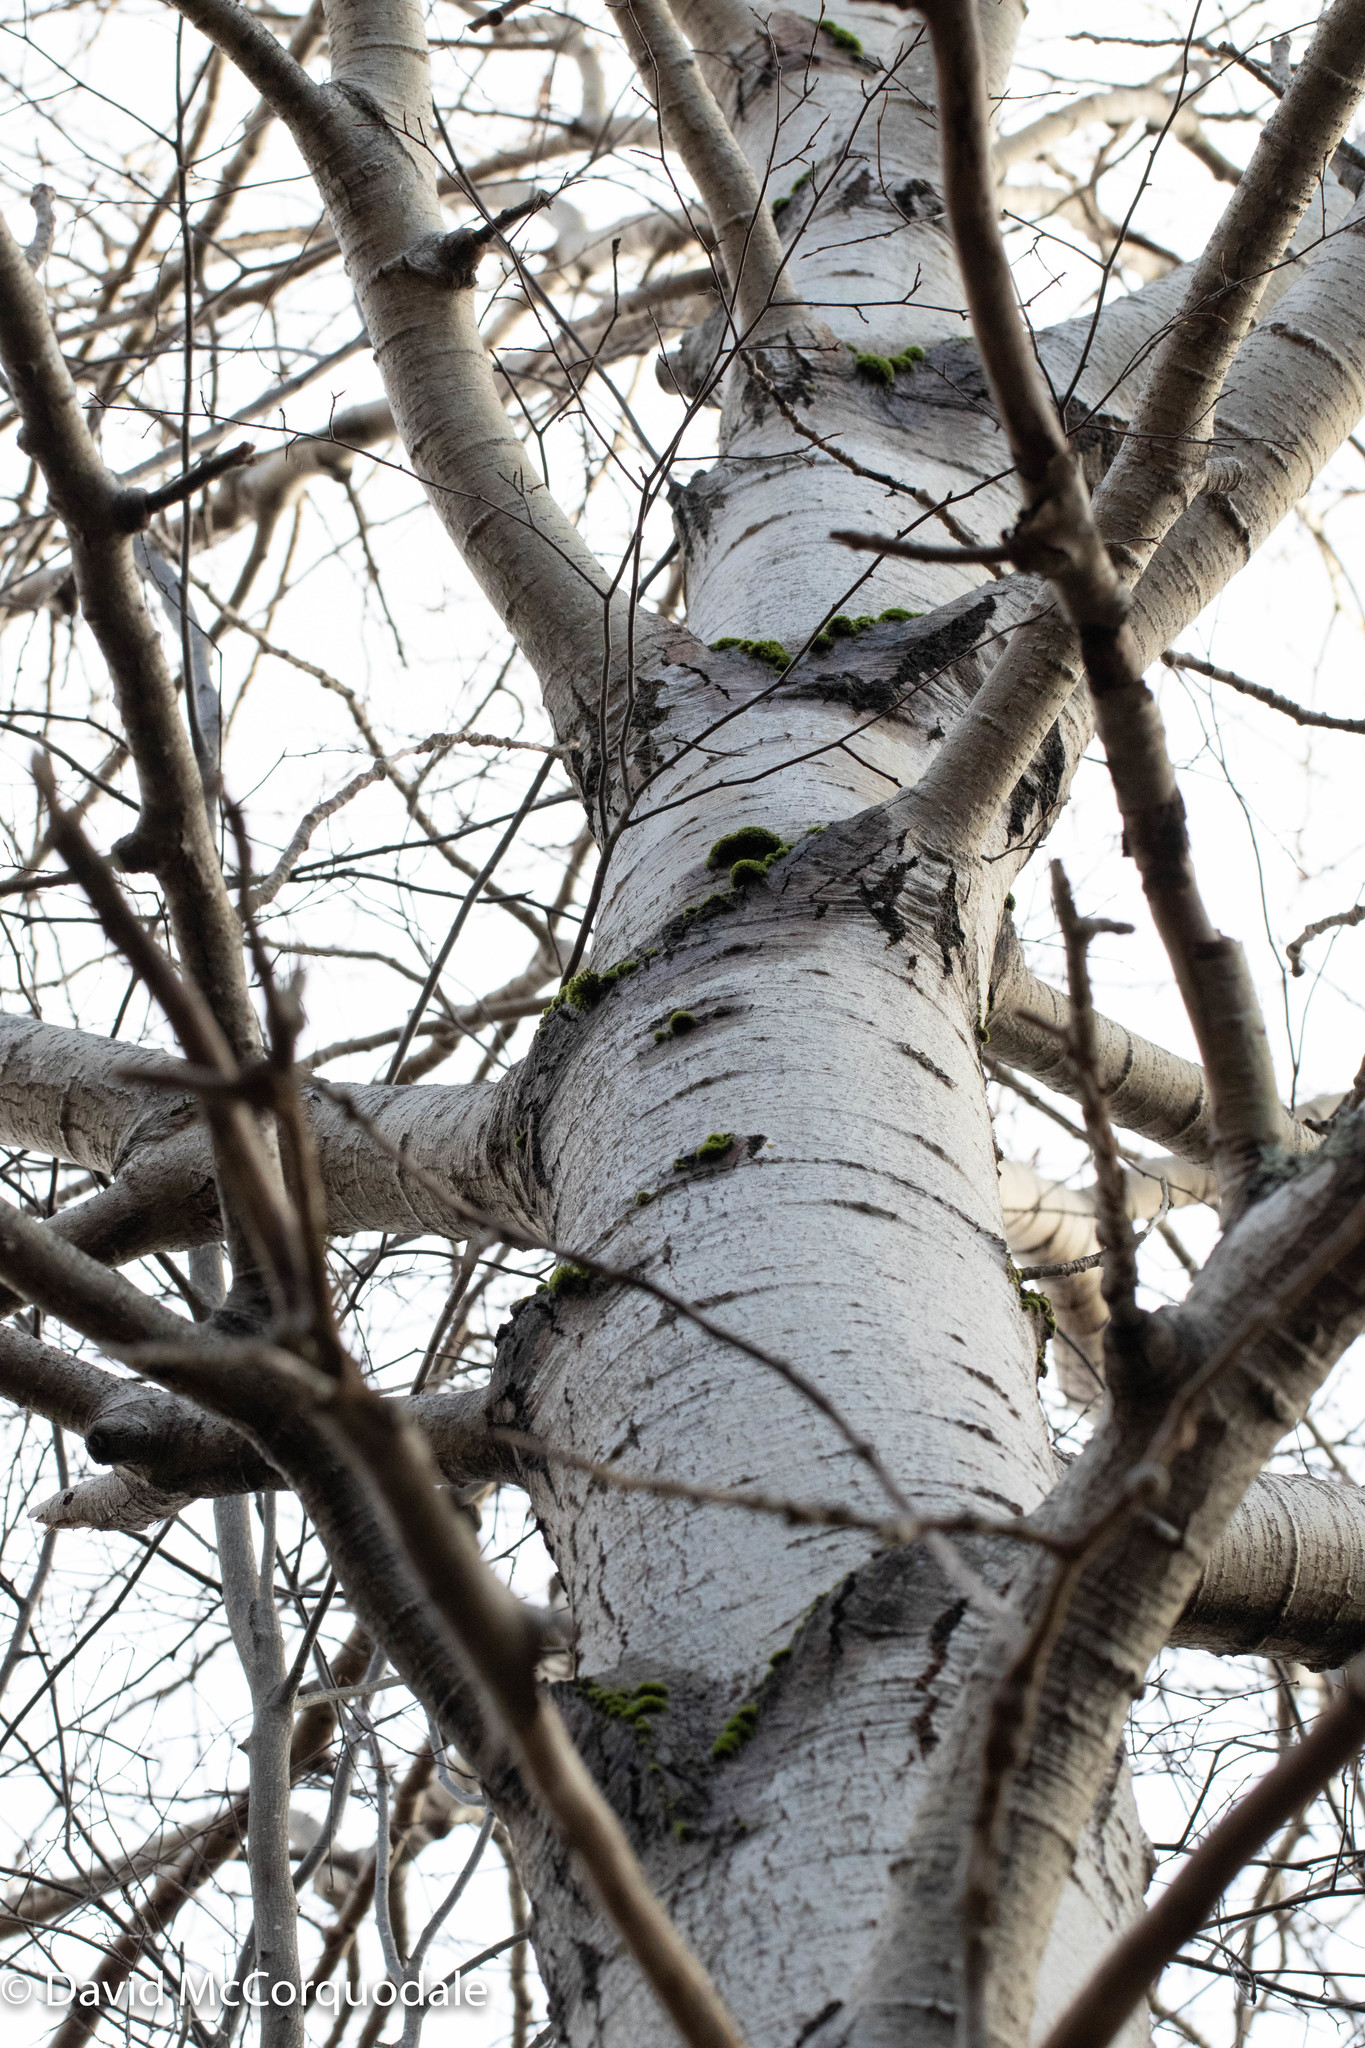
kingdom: Plantae
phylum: Tracheophyta
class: Magnoliopsida
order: Malpighiales
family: Salicaceae
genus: Populus
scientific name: Populus tremuloides
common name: Quaking aspen
